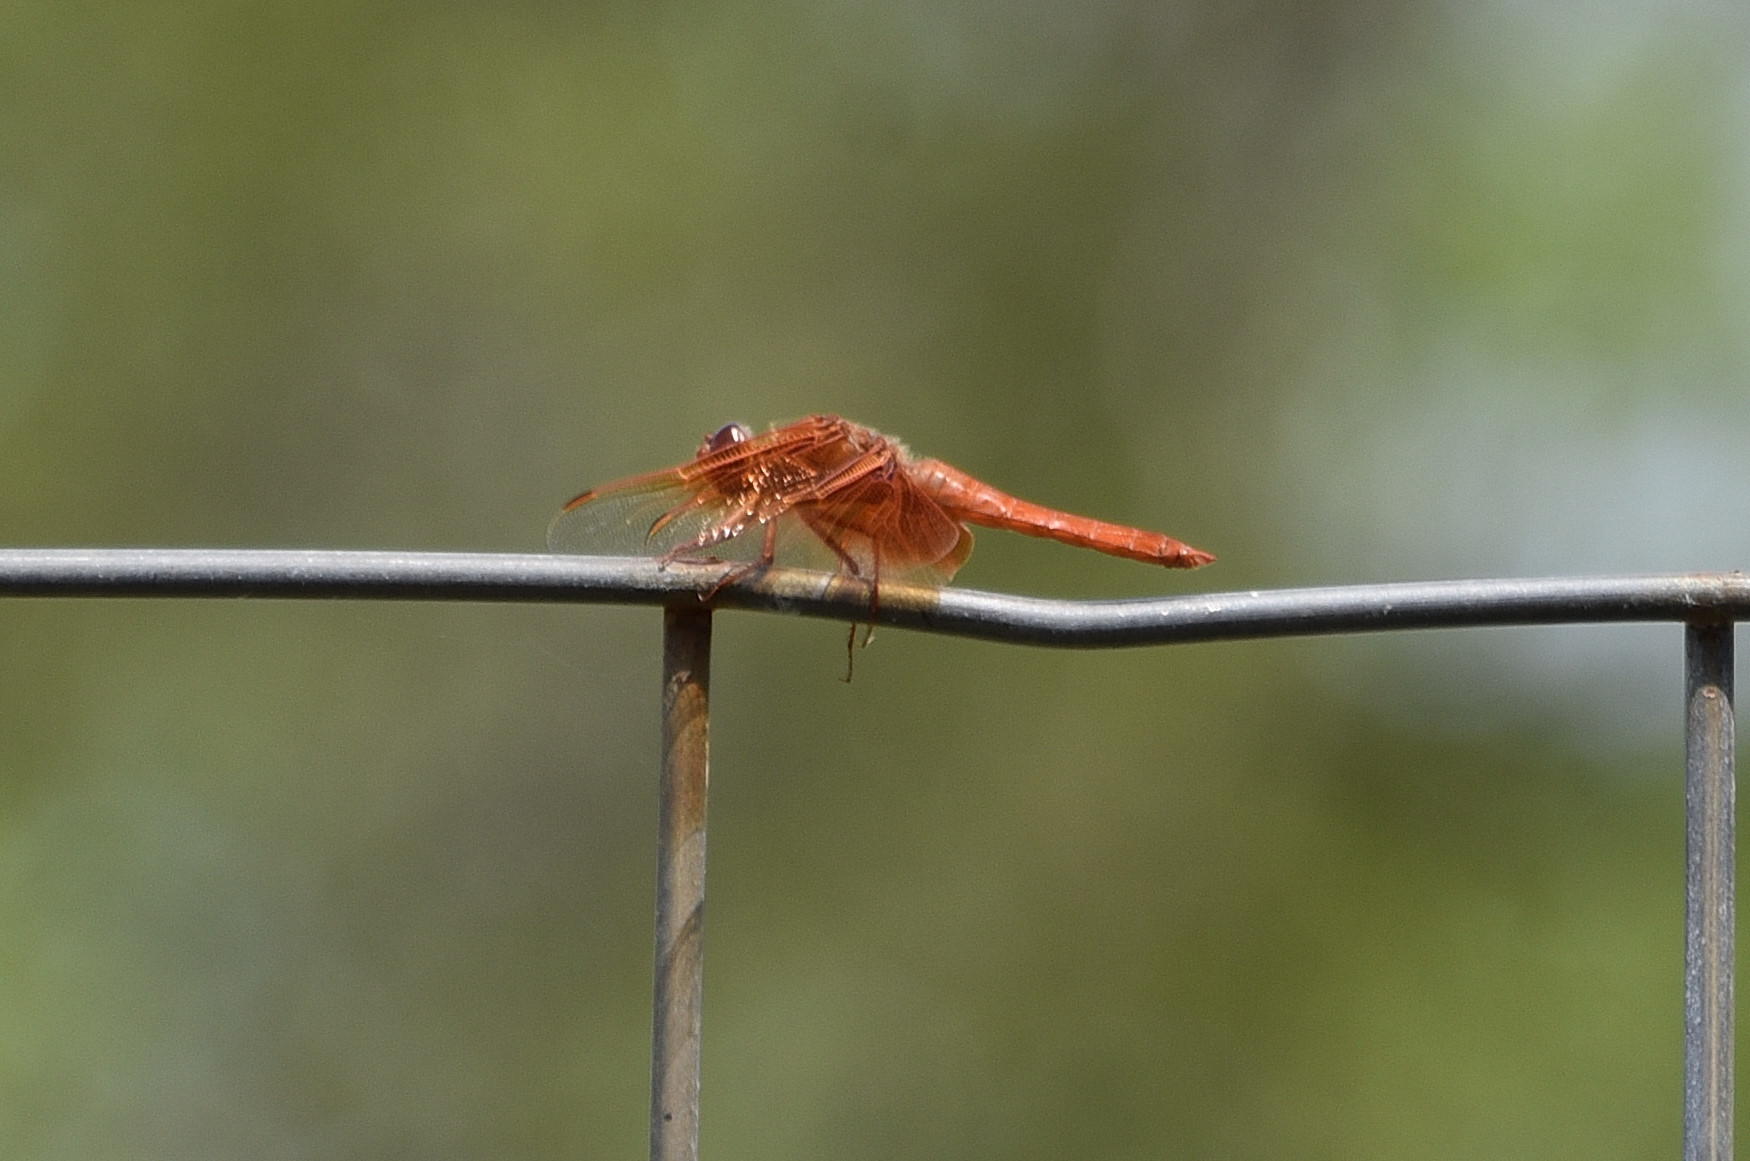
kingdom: Animalia
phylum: Arthropoda
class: Insecta
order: Odonata
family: Libellulidae
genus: Libellula
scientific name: Libellula saturata
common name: Flame skimmer
